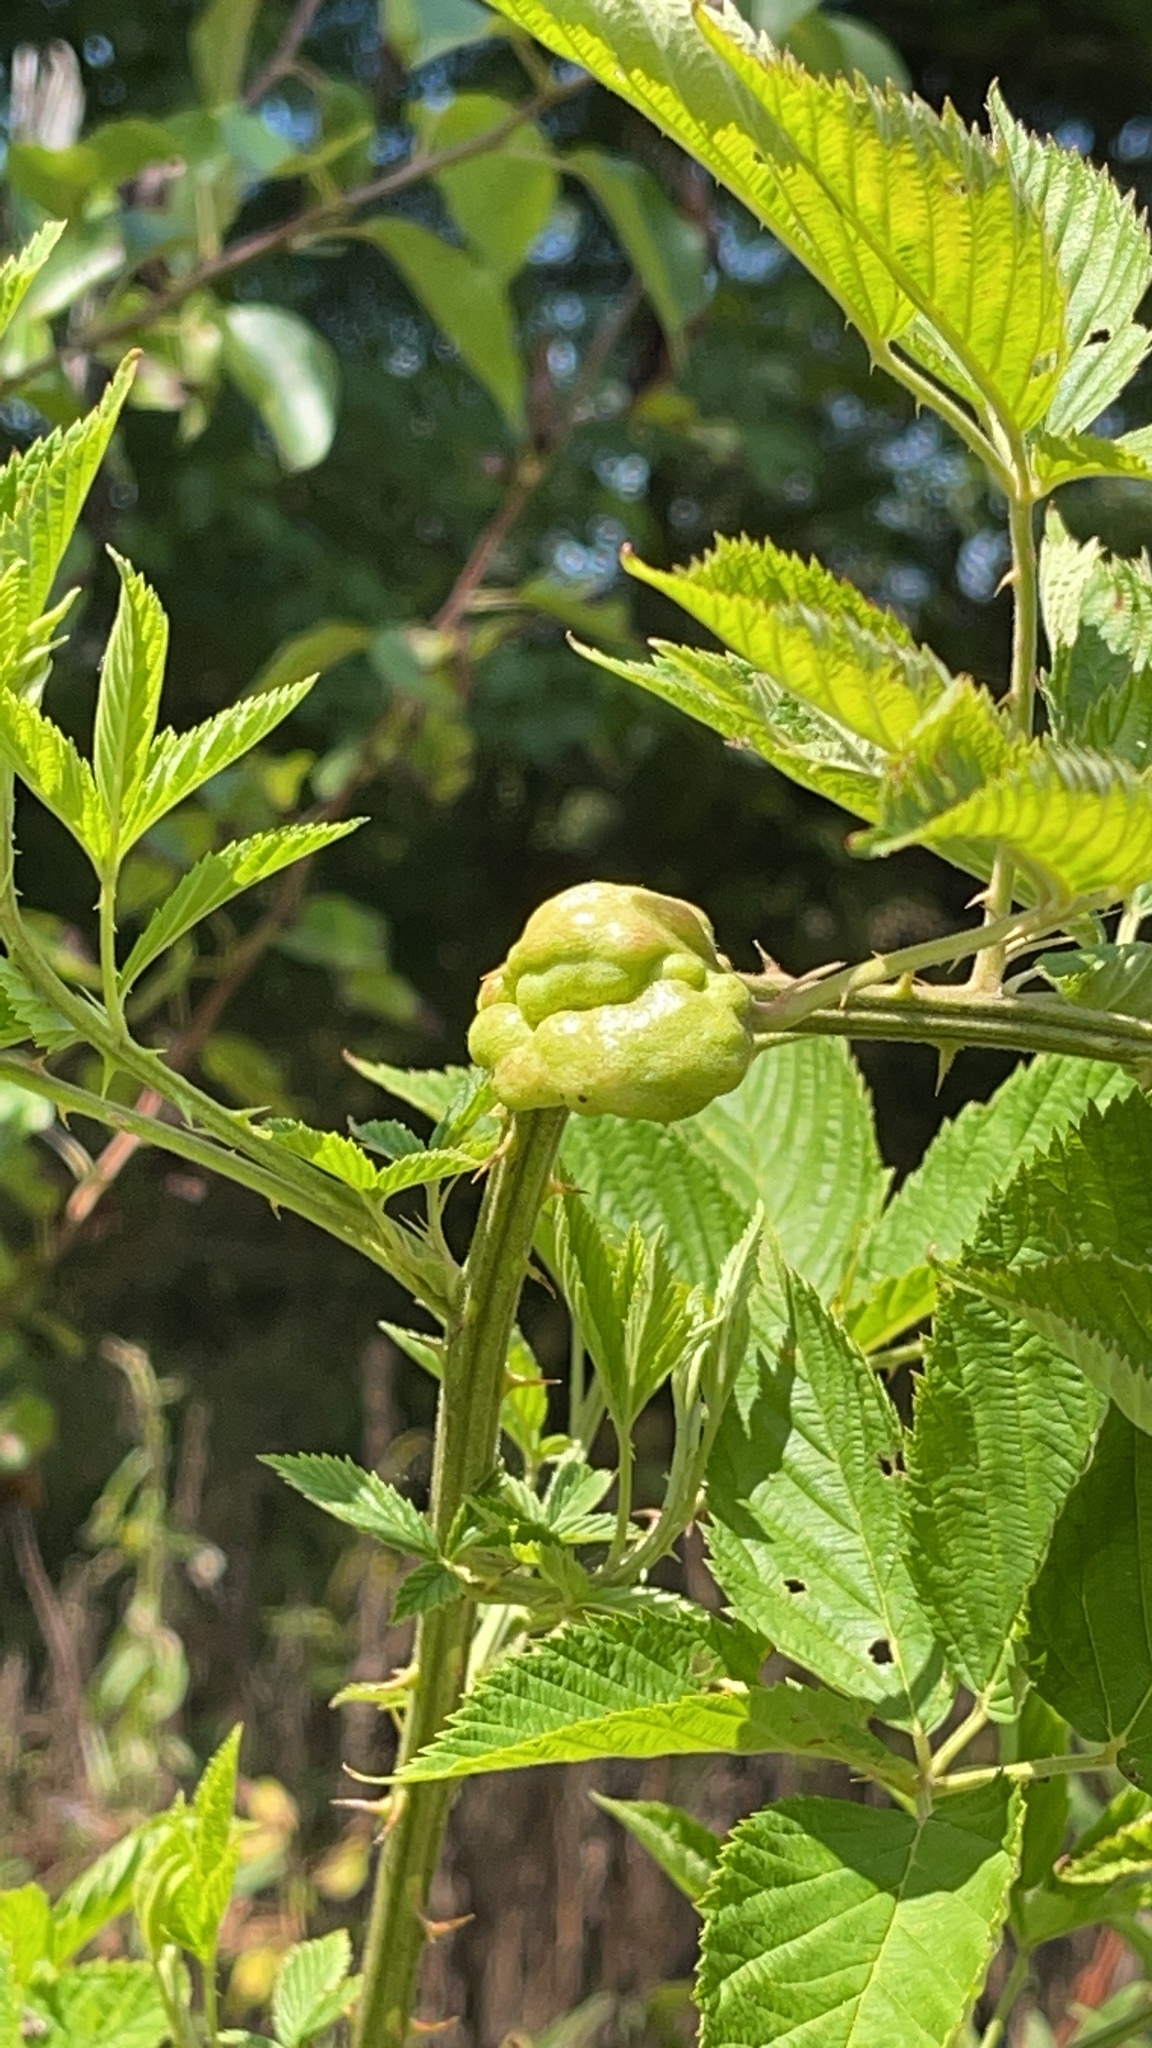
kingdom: Animalia
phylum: Arthropoda
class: Insecta
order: Hymenoptera
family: Cynipidae
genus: Diastrophus
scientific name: Diastrophus
